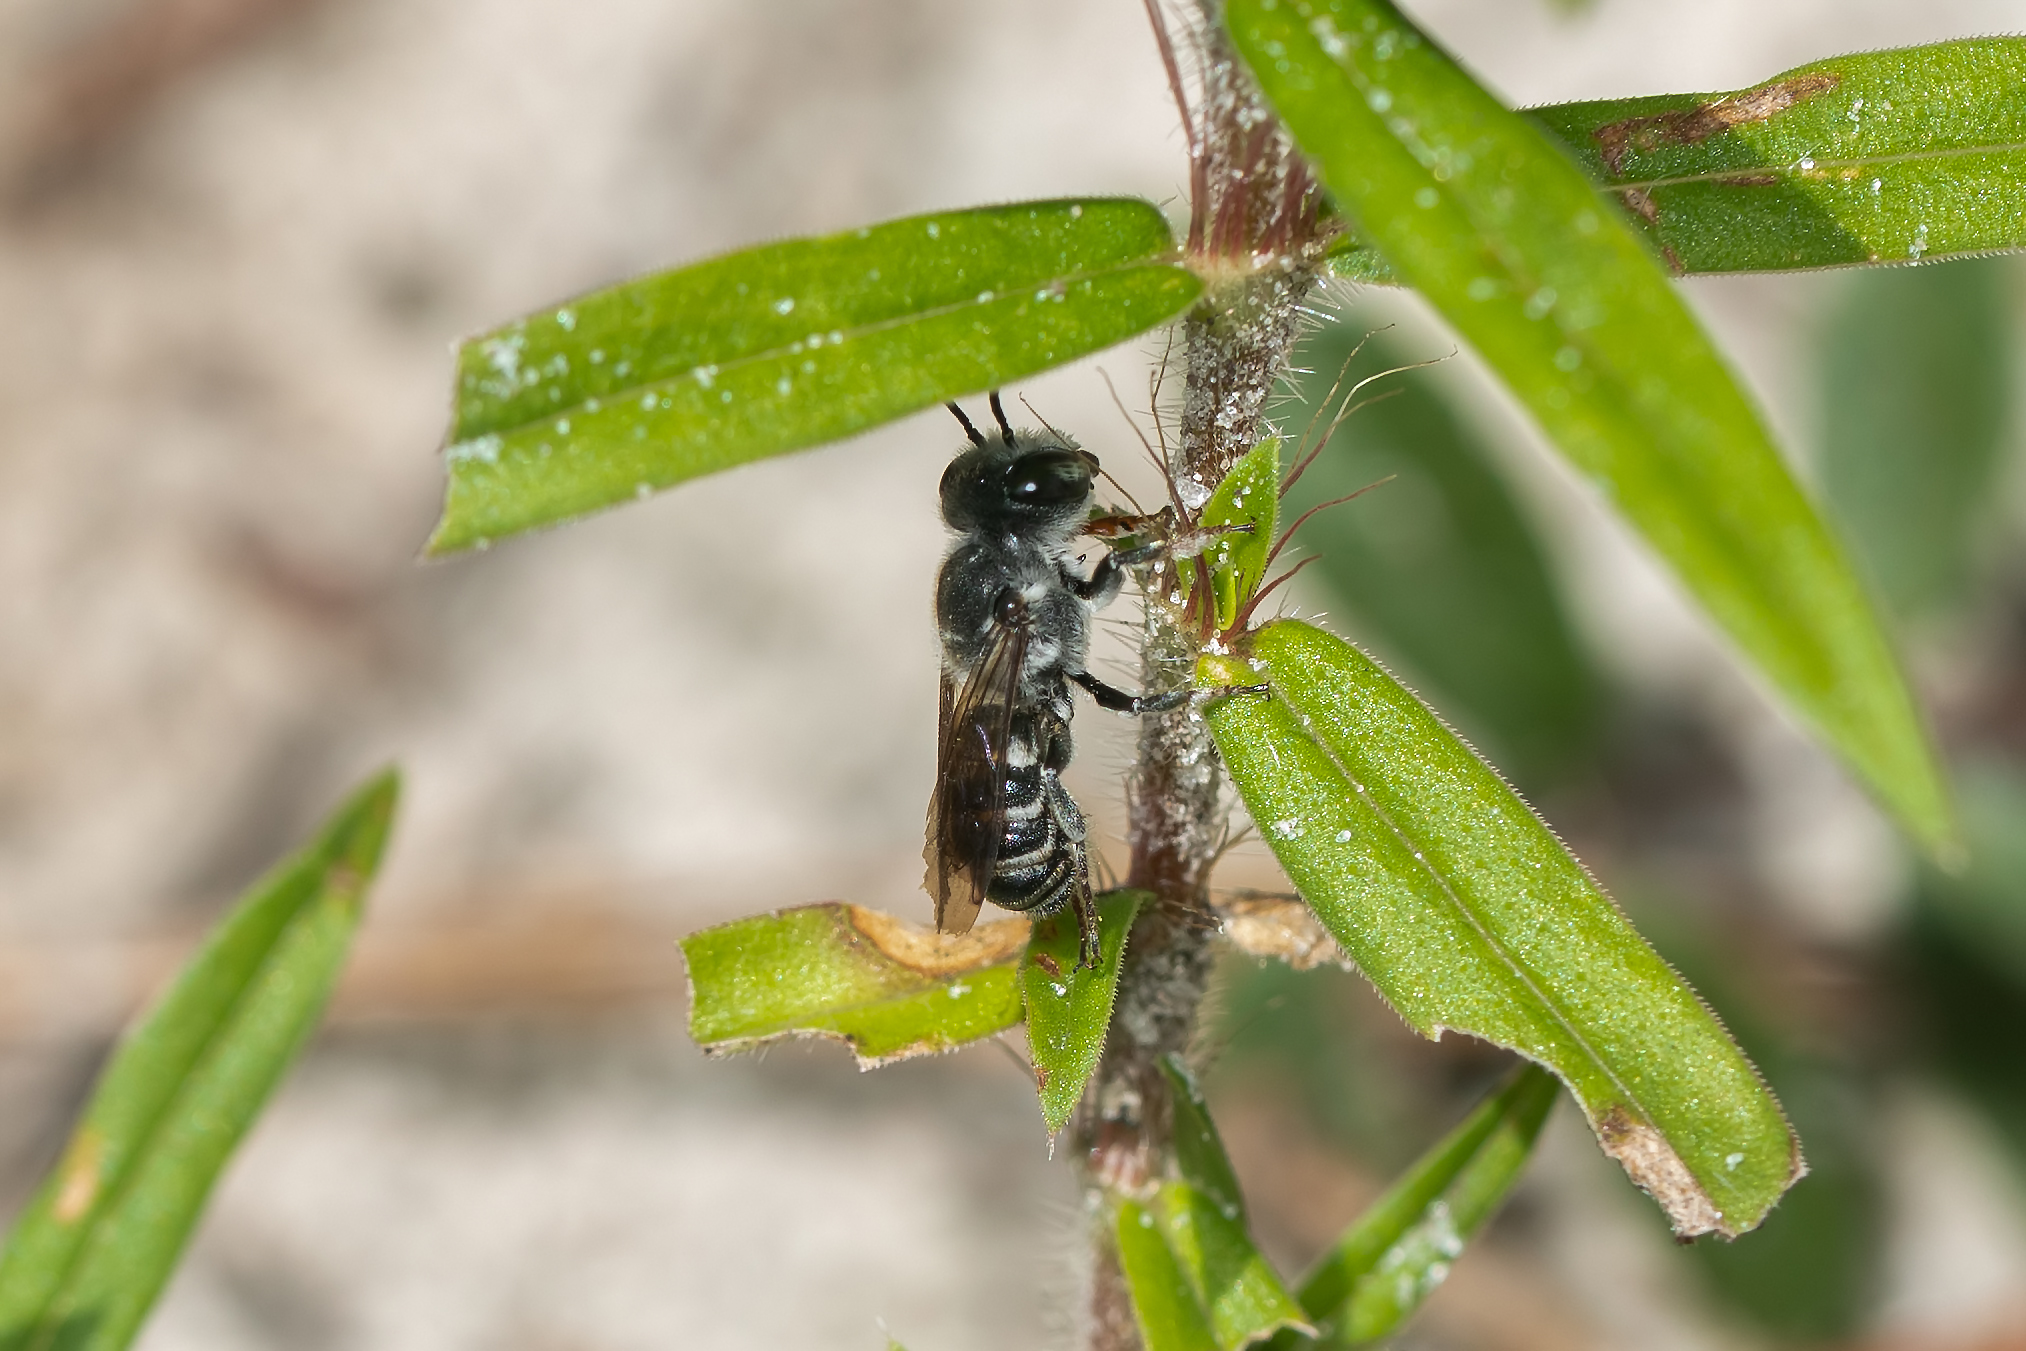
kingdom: Animalia
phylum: Arthropoda
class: Insecta
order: Hymenoptera
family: Megachilidae
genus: Megachile
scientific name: Megachile georgica
